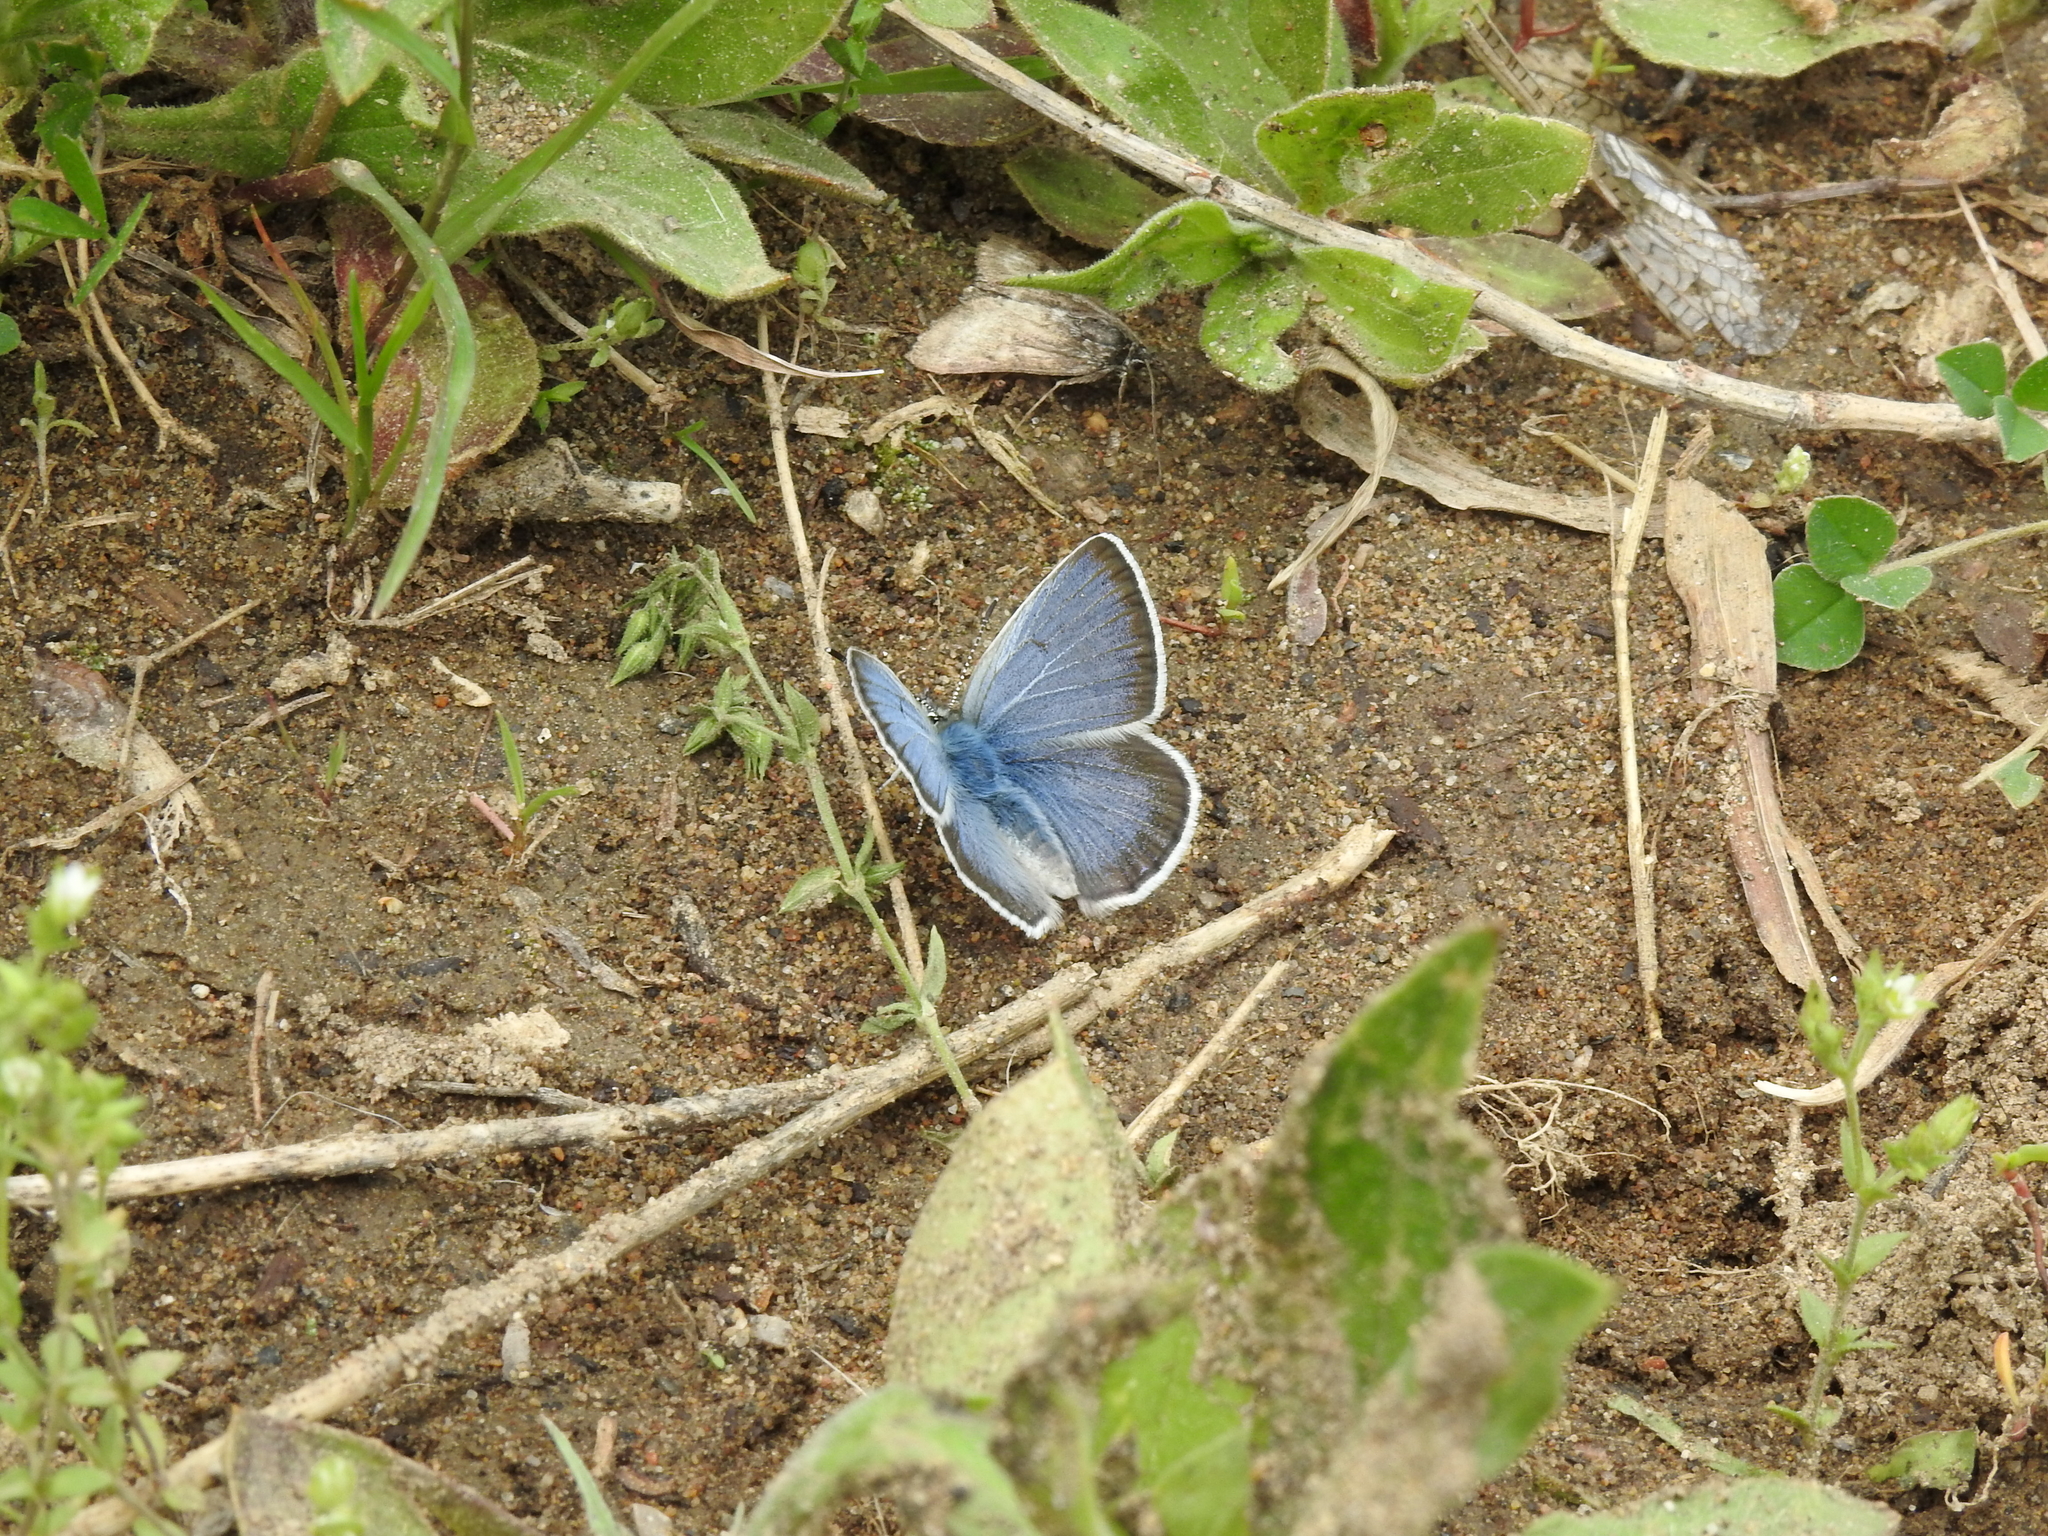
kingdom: Animalia
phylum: Arthropoda
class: Insecta
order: Lepidoptera
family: Lycaenidae
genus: Icaricia
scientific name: Icaricia icarioides
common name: Boisduval's blue
